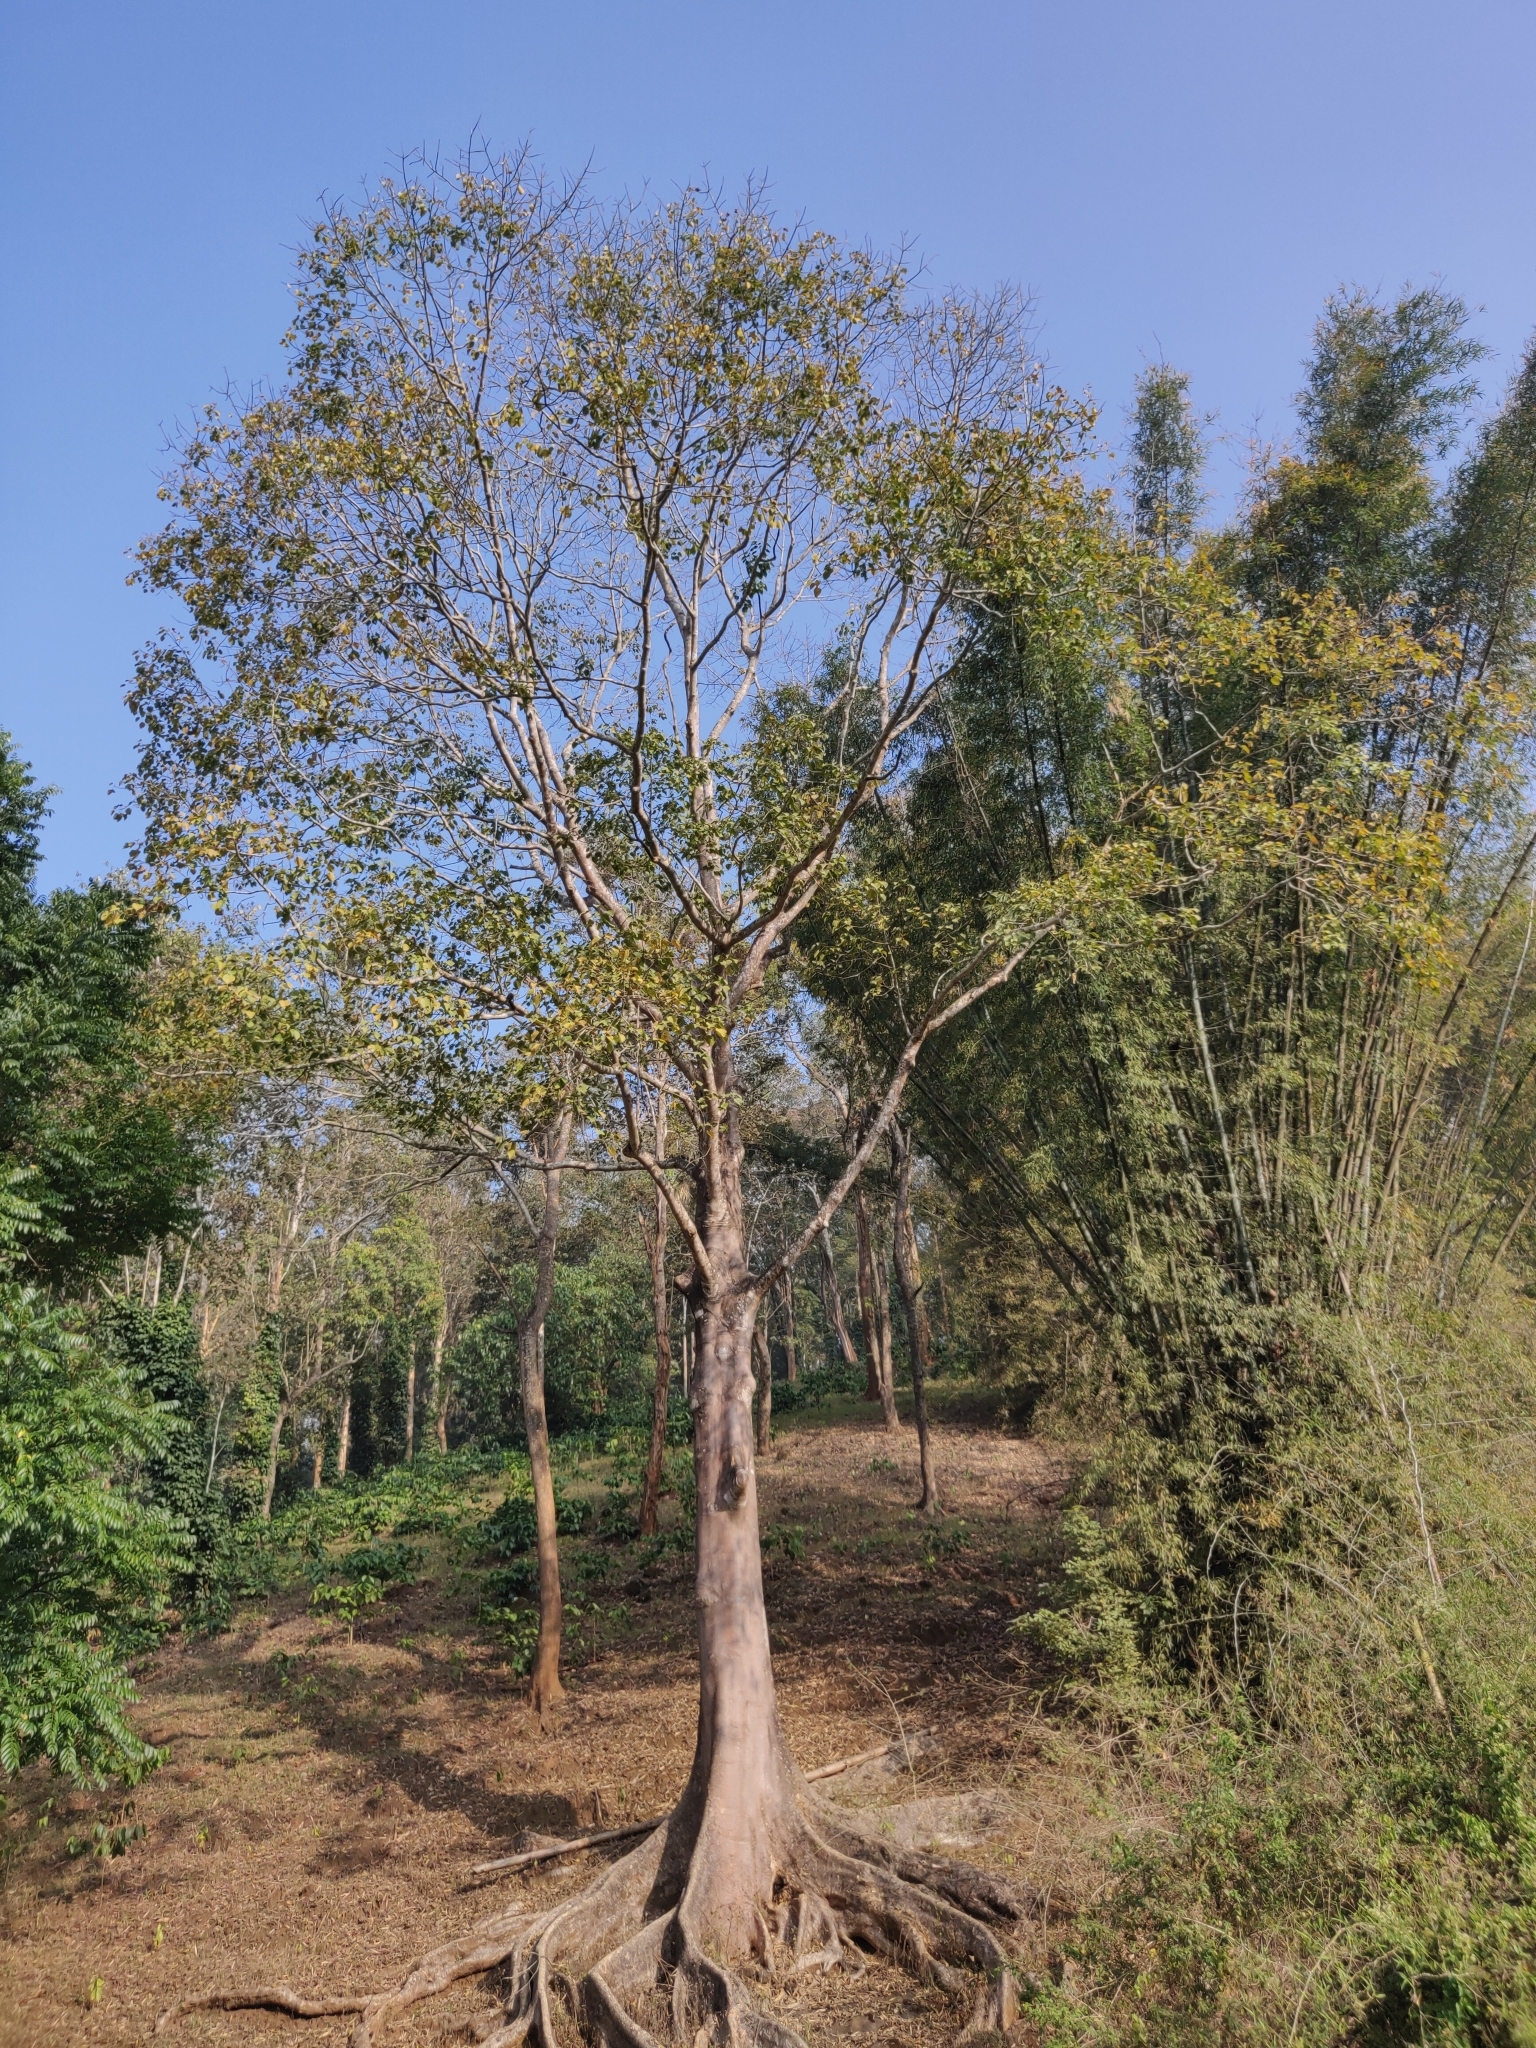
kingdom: Plantae
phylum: Tracheophyta
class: Magnoliopsida
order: Cucurbitales
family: Tetramelaceae
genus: Tetrameles
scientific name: Tetrameles nudiflora
